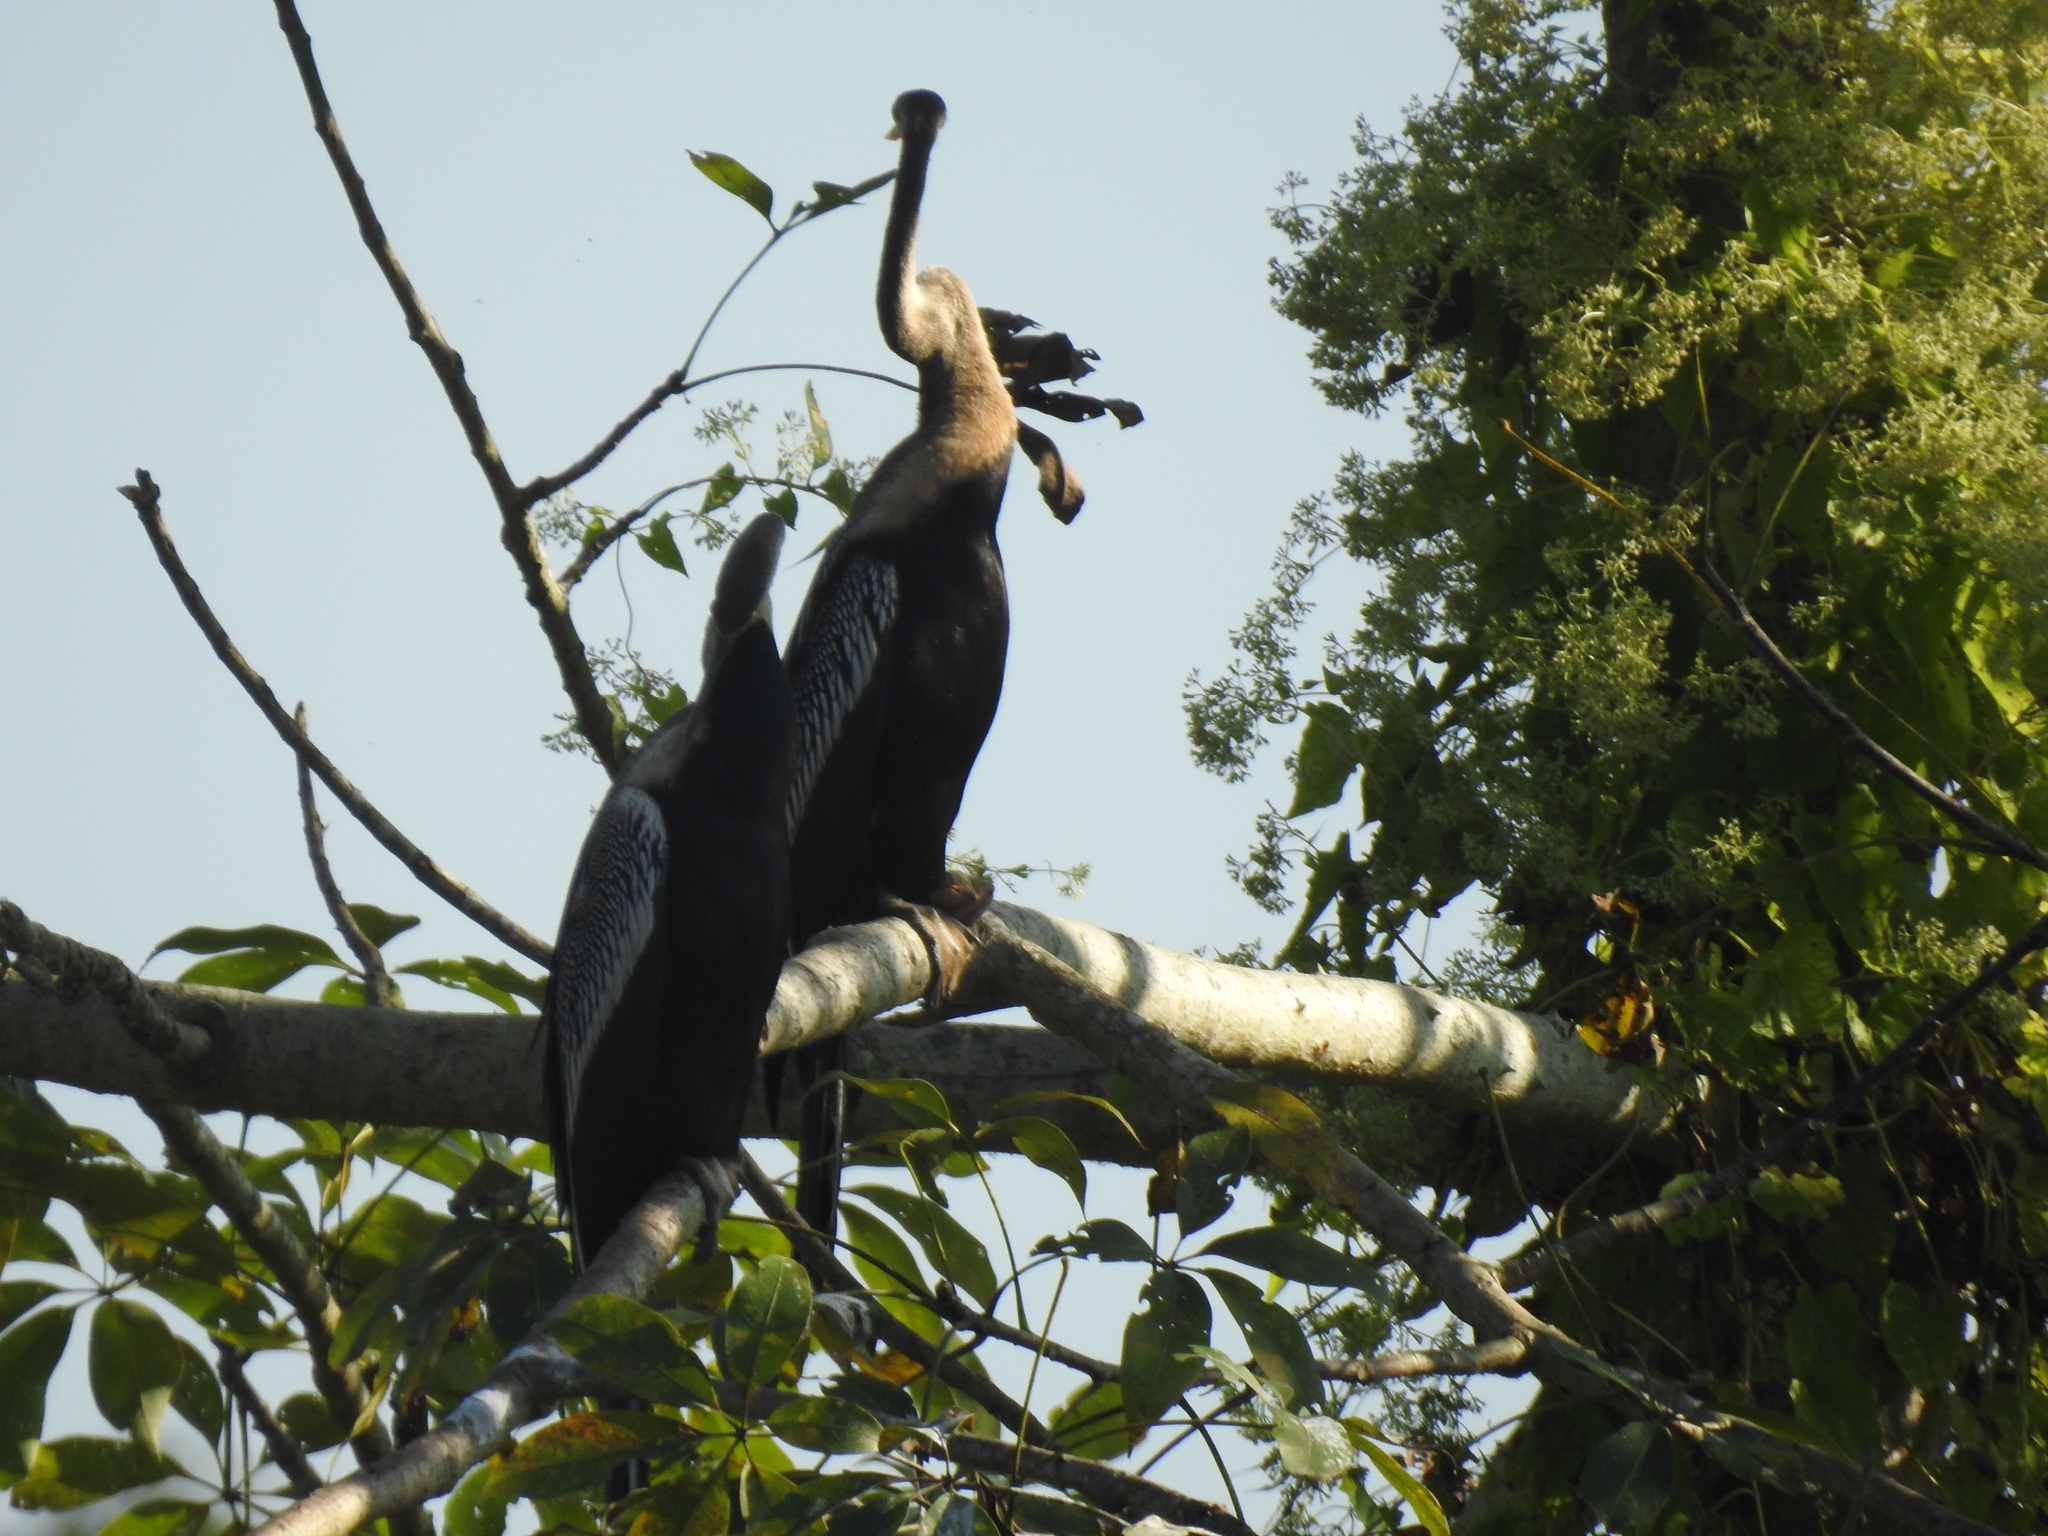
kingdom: Animalia
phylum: Chordata
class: Aves
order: Suliformes
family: Anhingidae
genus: Anhinga
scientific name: Anhinga melanogaster
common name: Oriental darter
